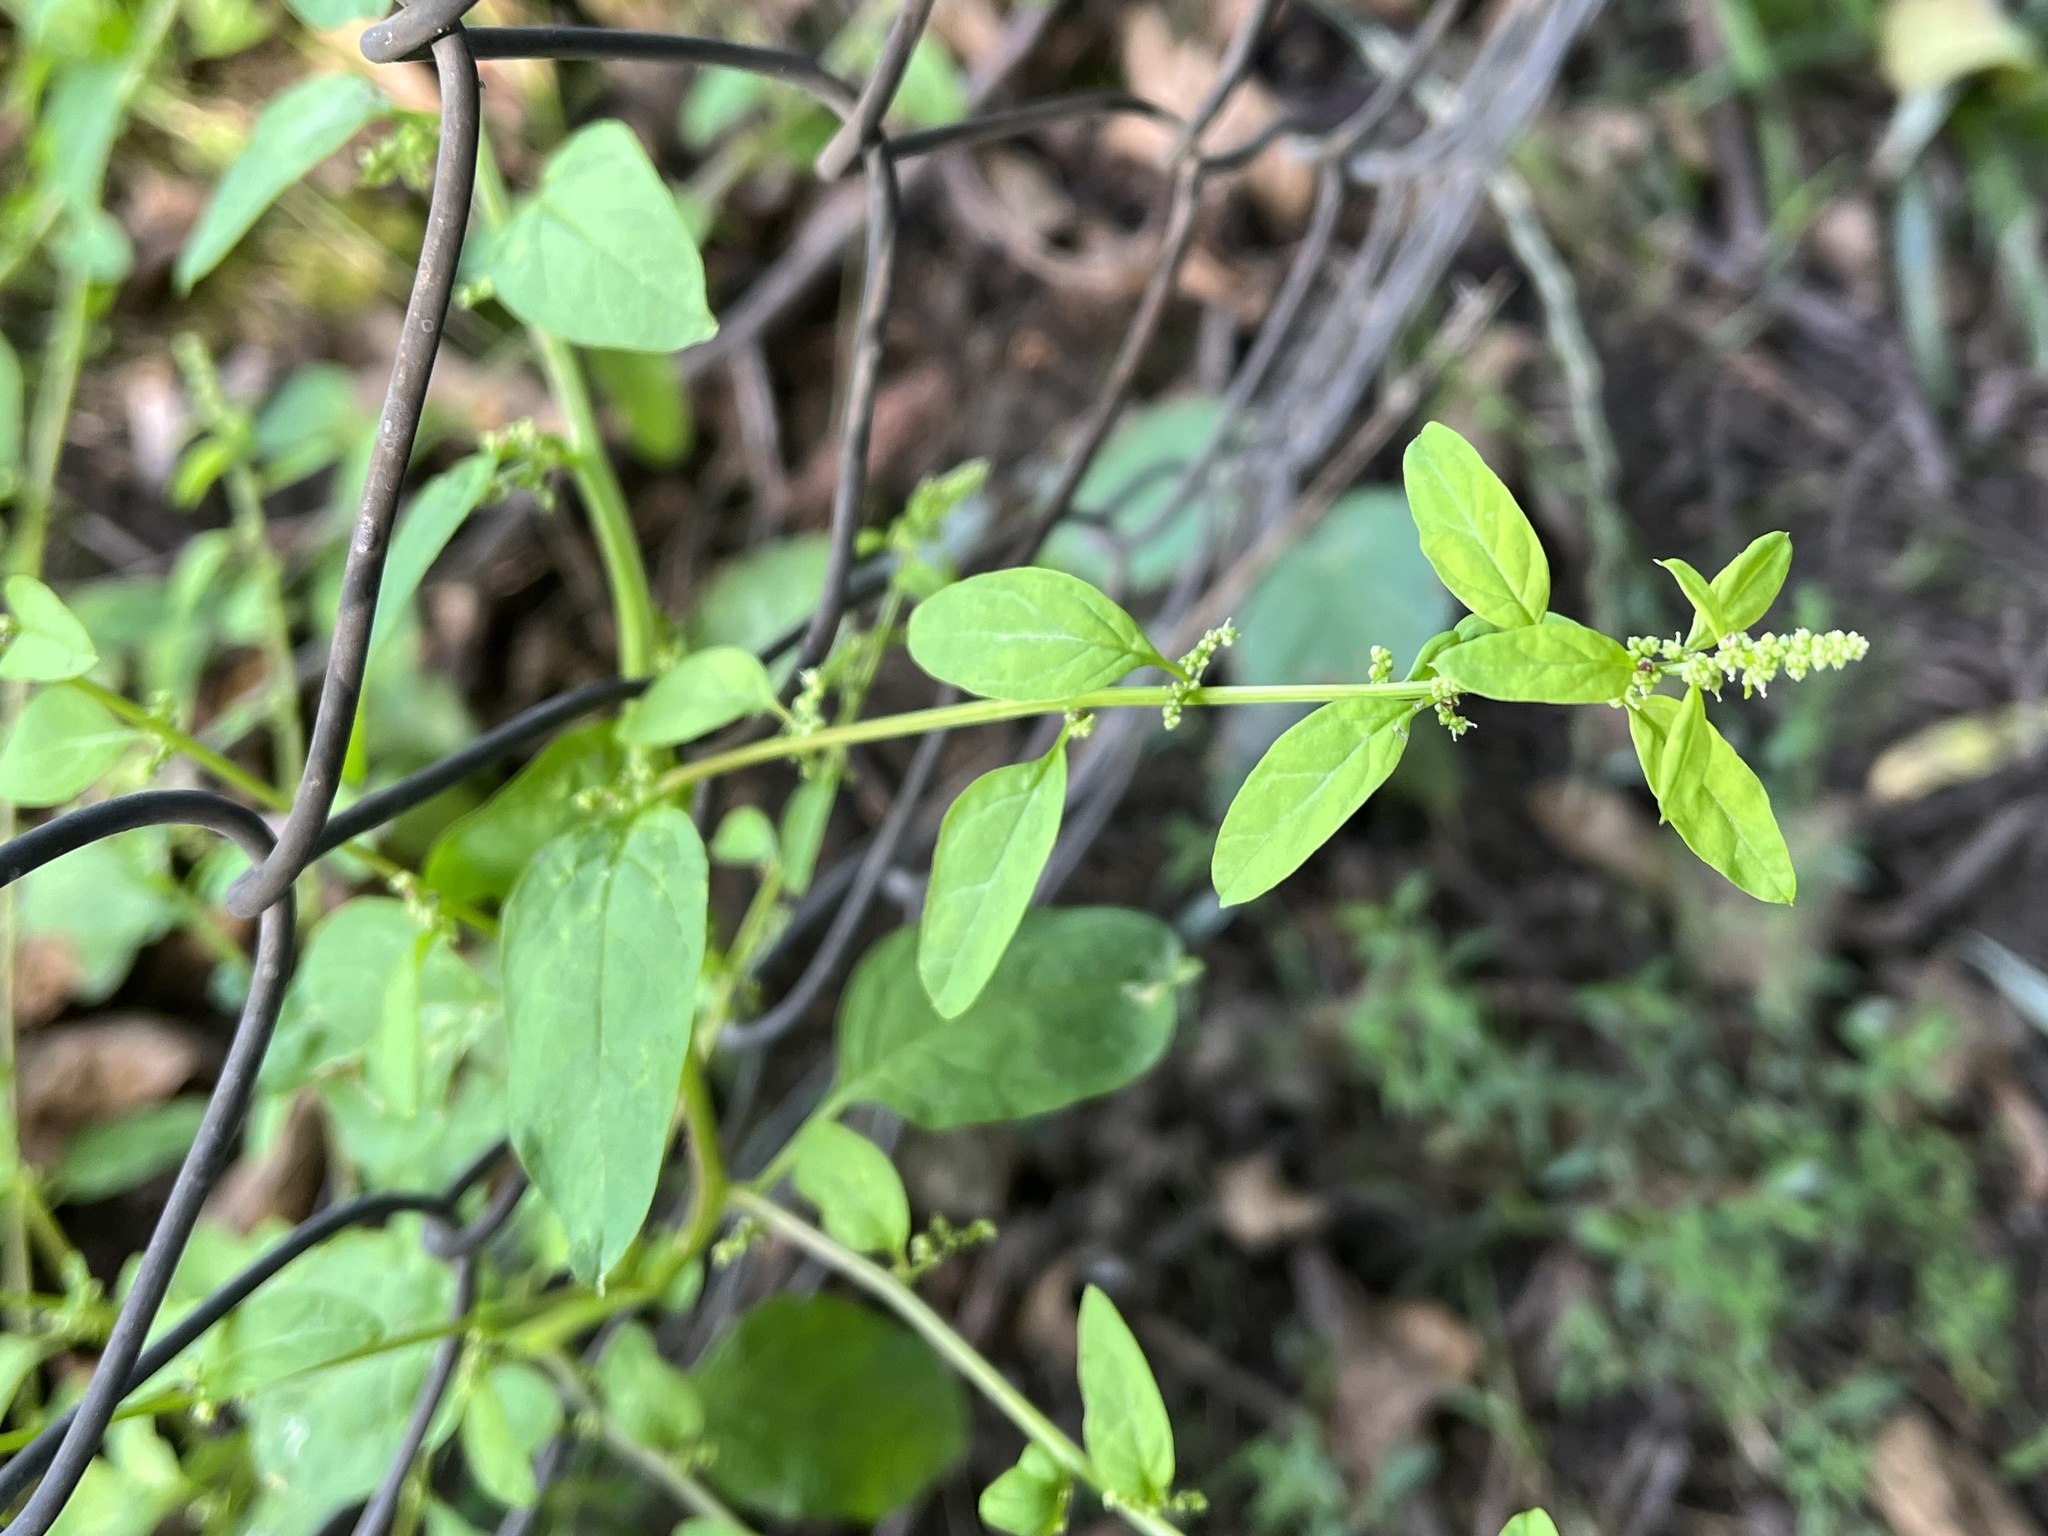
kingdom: Plantae
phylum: Tracheophyta
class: Magnoliopsida
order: Caryophyllales
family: Amaranthaceae
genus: Lipandra
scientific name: Lipandra polysperma
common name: Many-seed goosefoot
